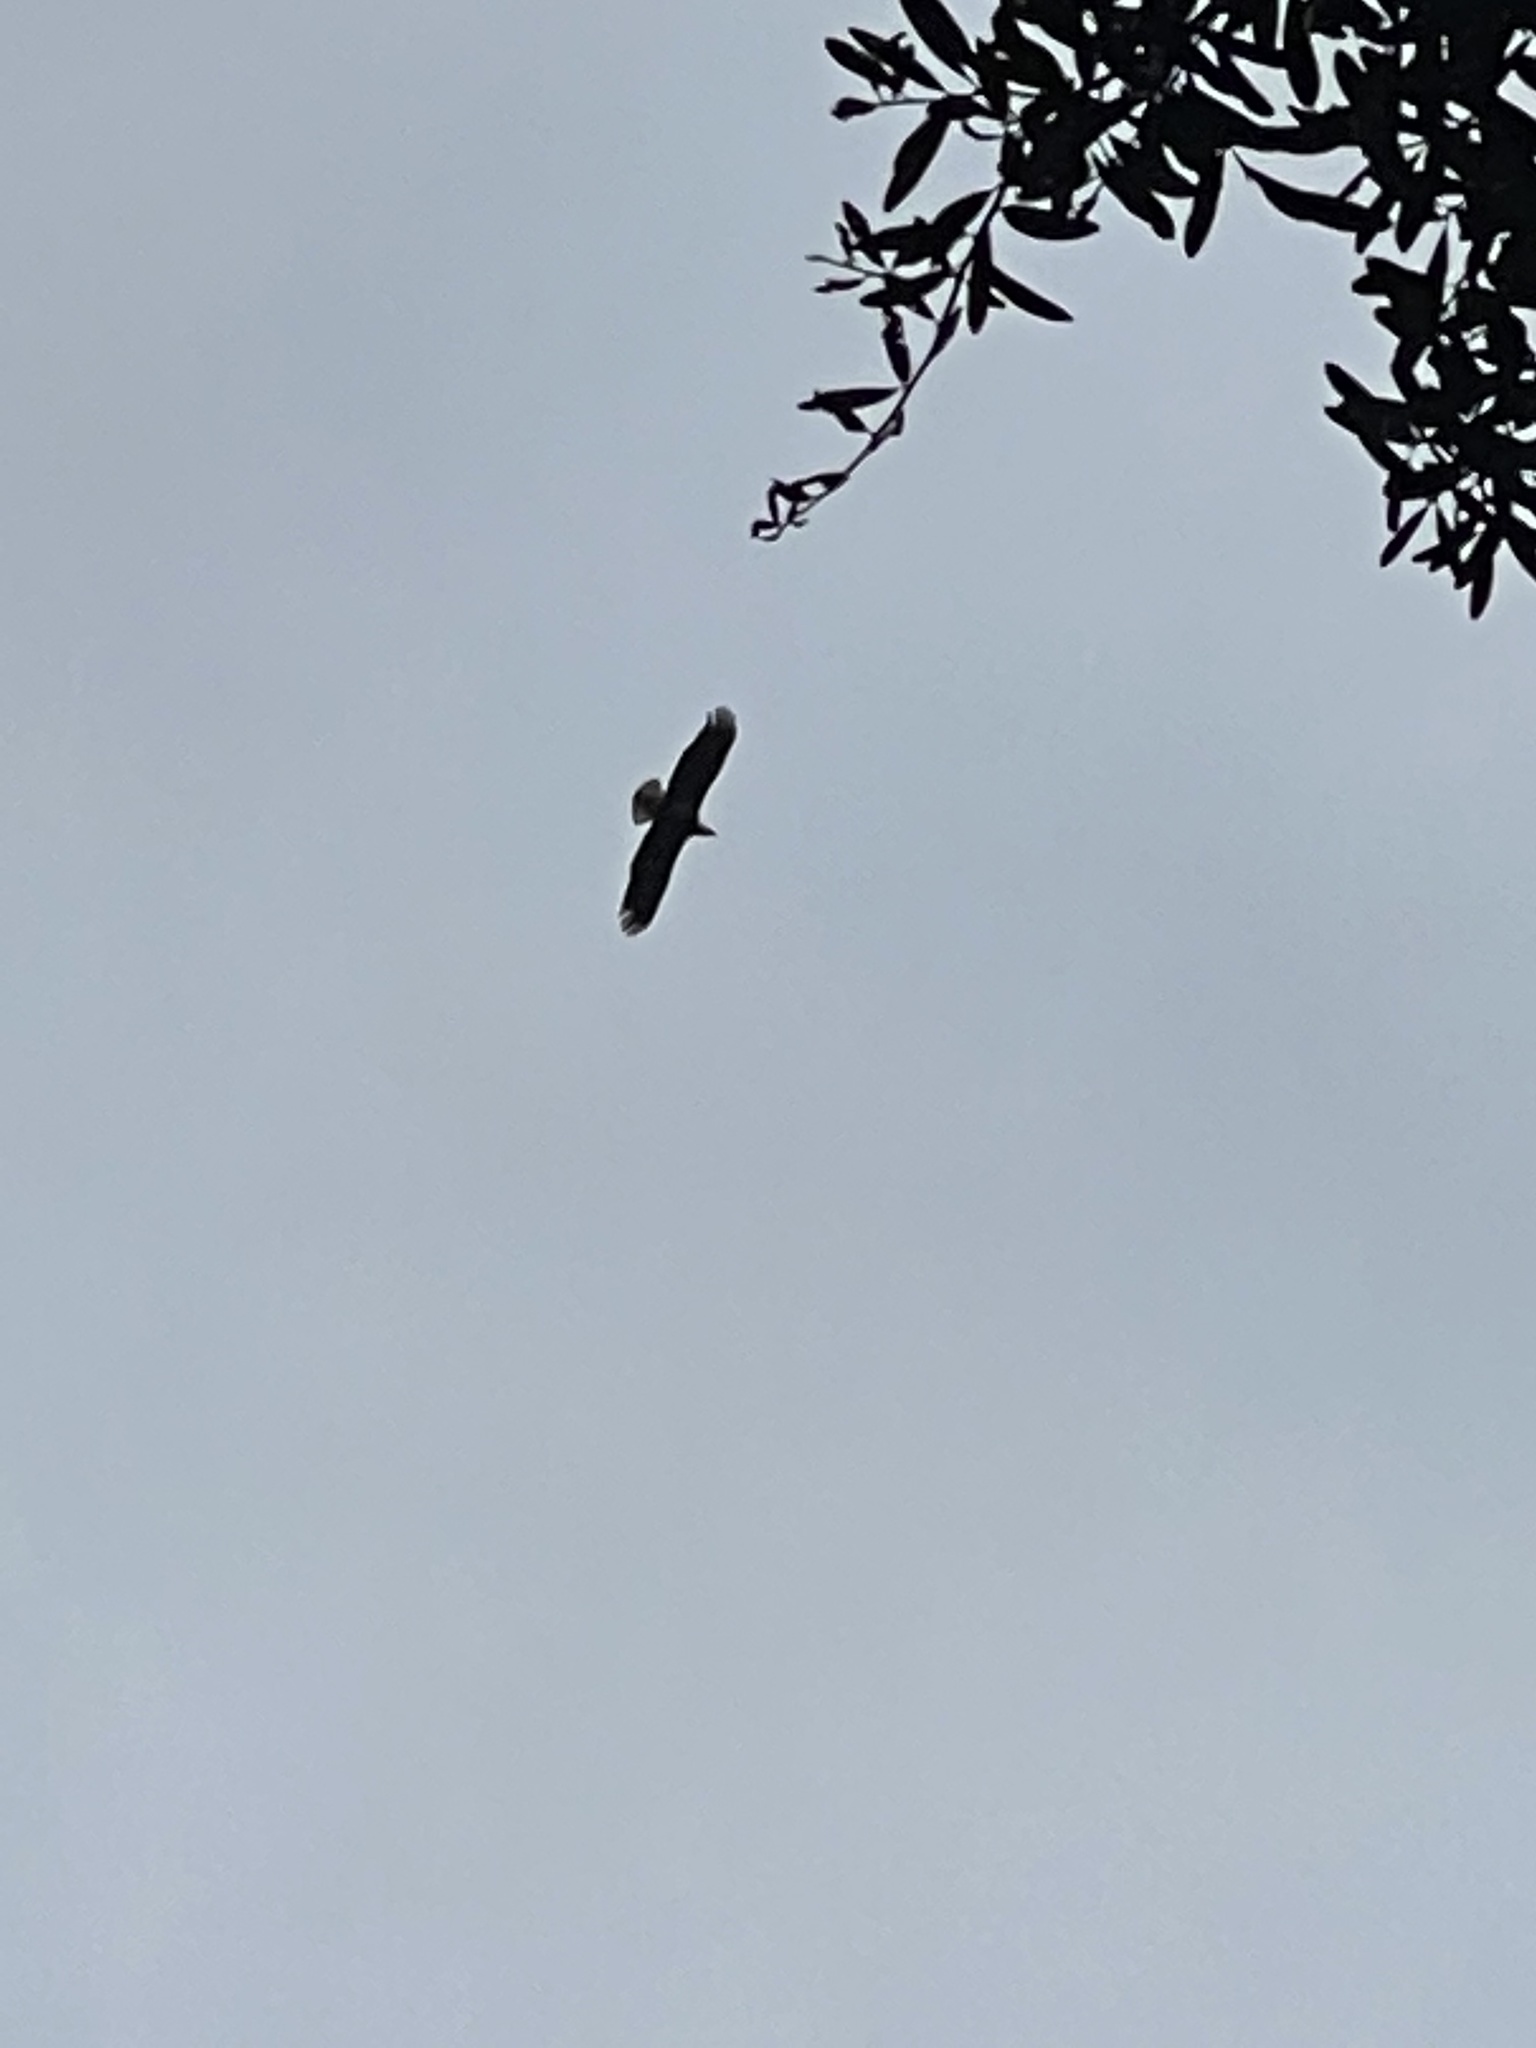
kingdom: Animalia
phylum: Chordata
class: Aves
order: Accipitriformes
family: Accipitridae
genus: Haliaeetus
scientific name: Haliaeetus leucocephalus
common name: Bald eagle
